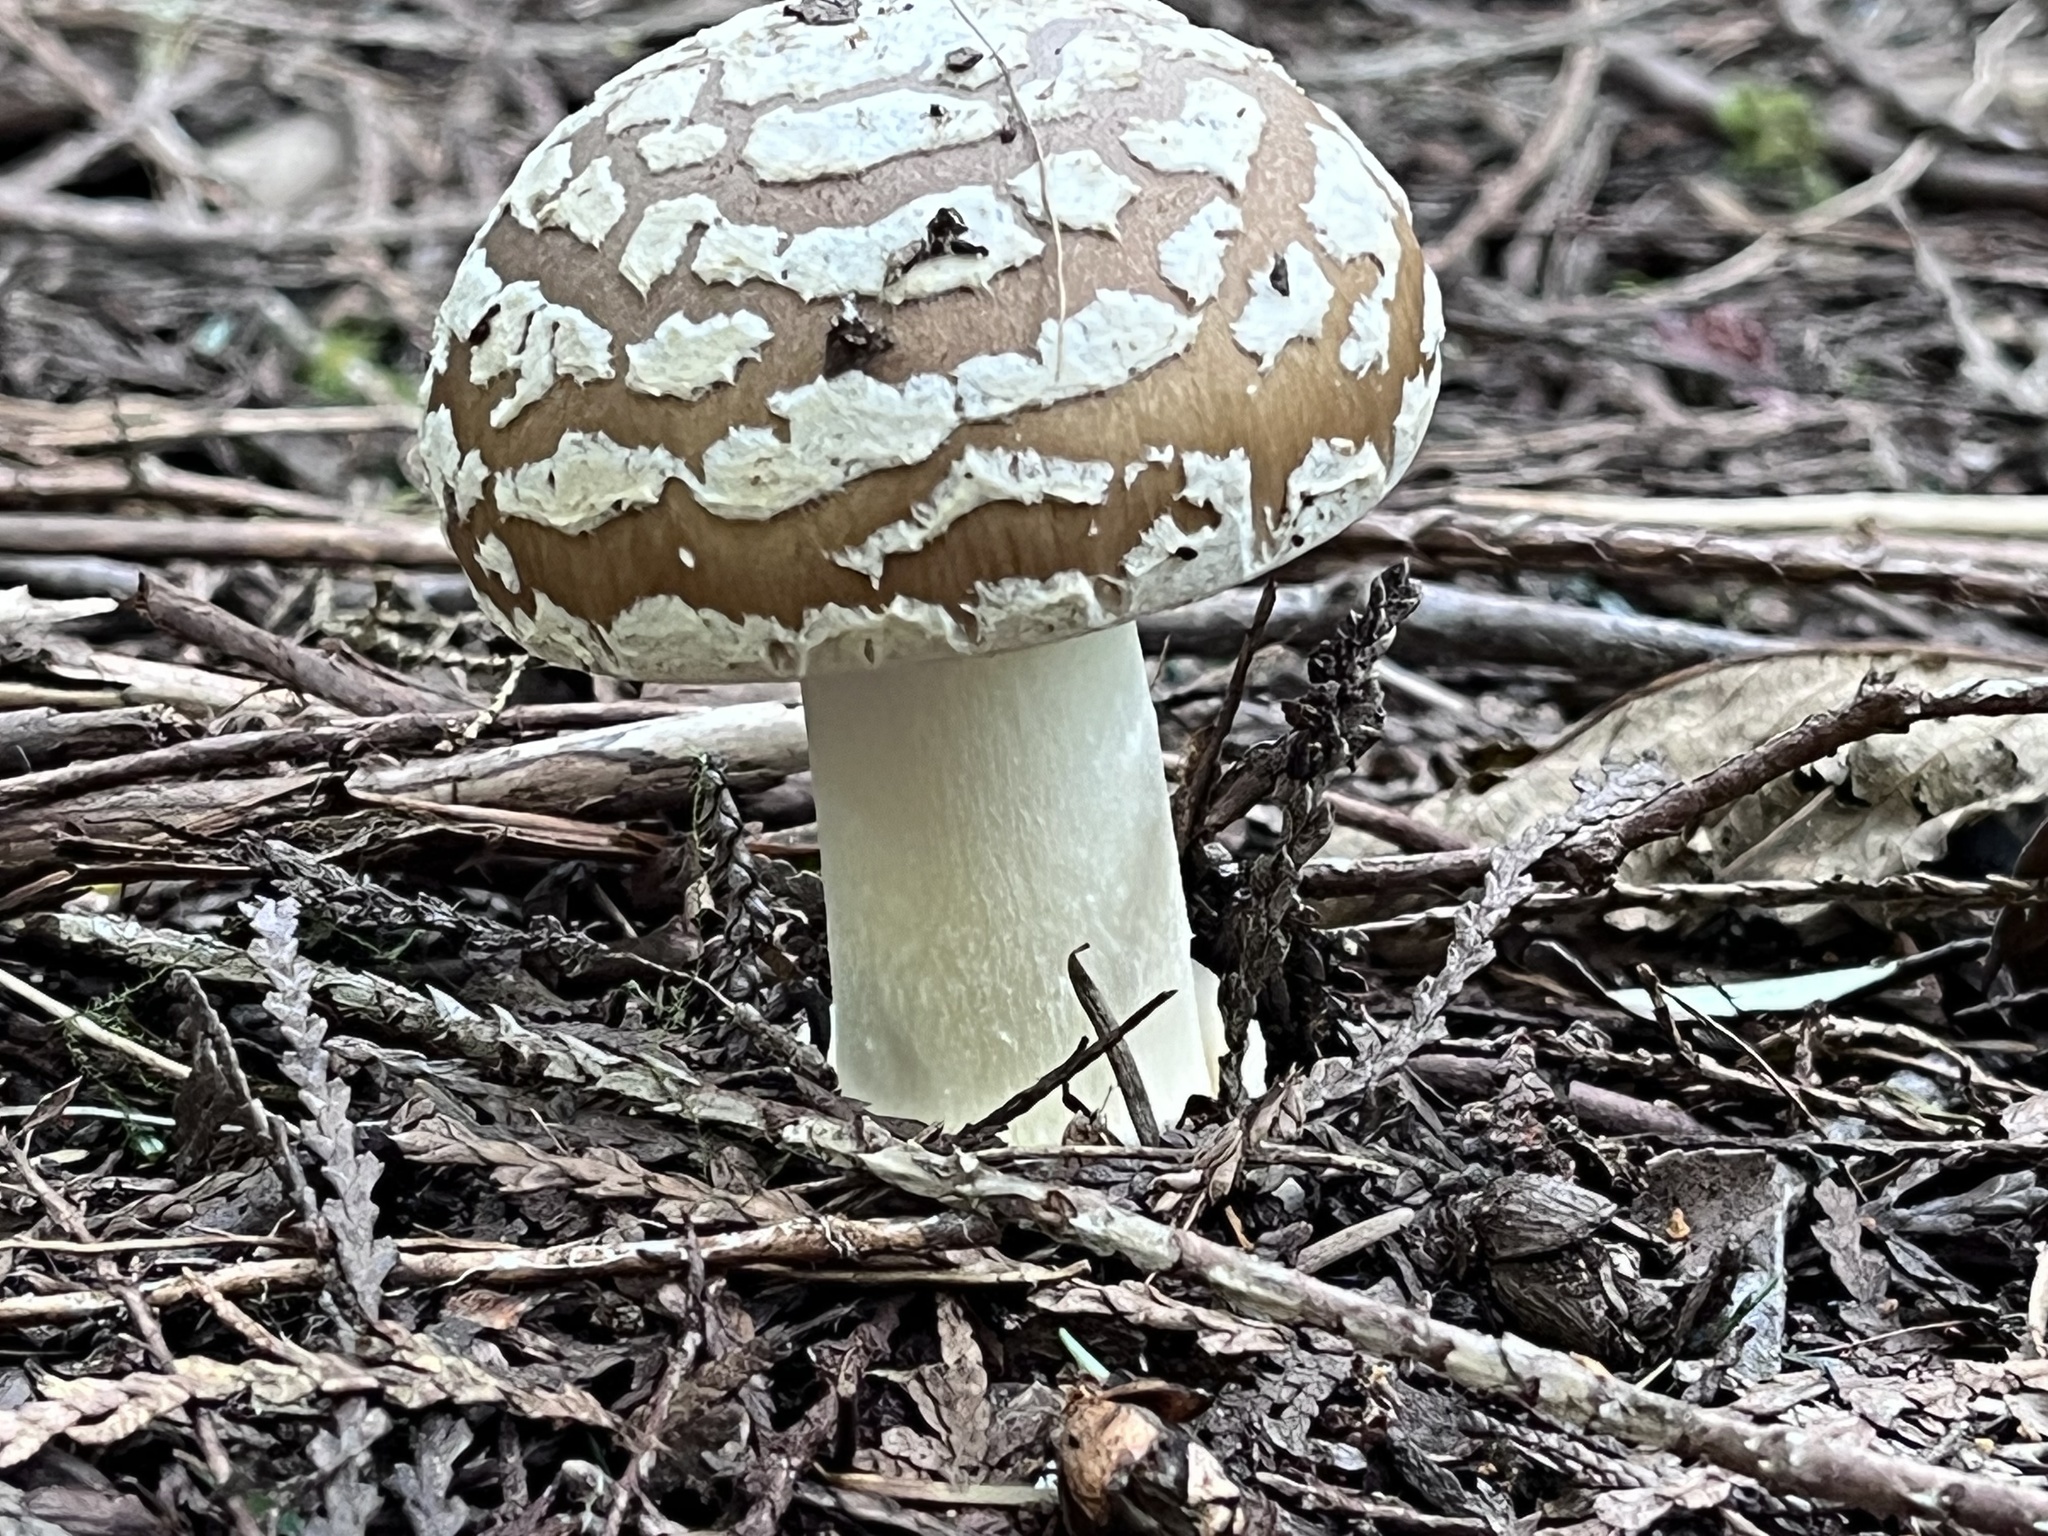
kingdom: Fungi
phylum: Basidiomycota
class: Agaricomycetes
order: Agaricales
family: Amanitaceae
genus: Amanita
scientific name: Amanita pantherinoides
